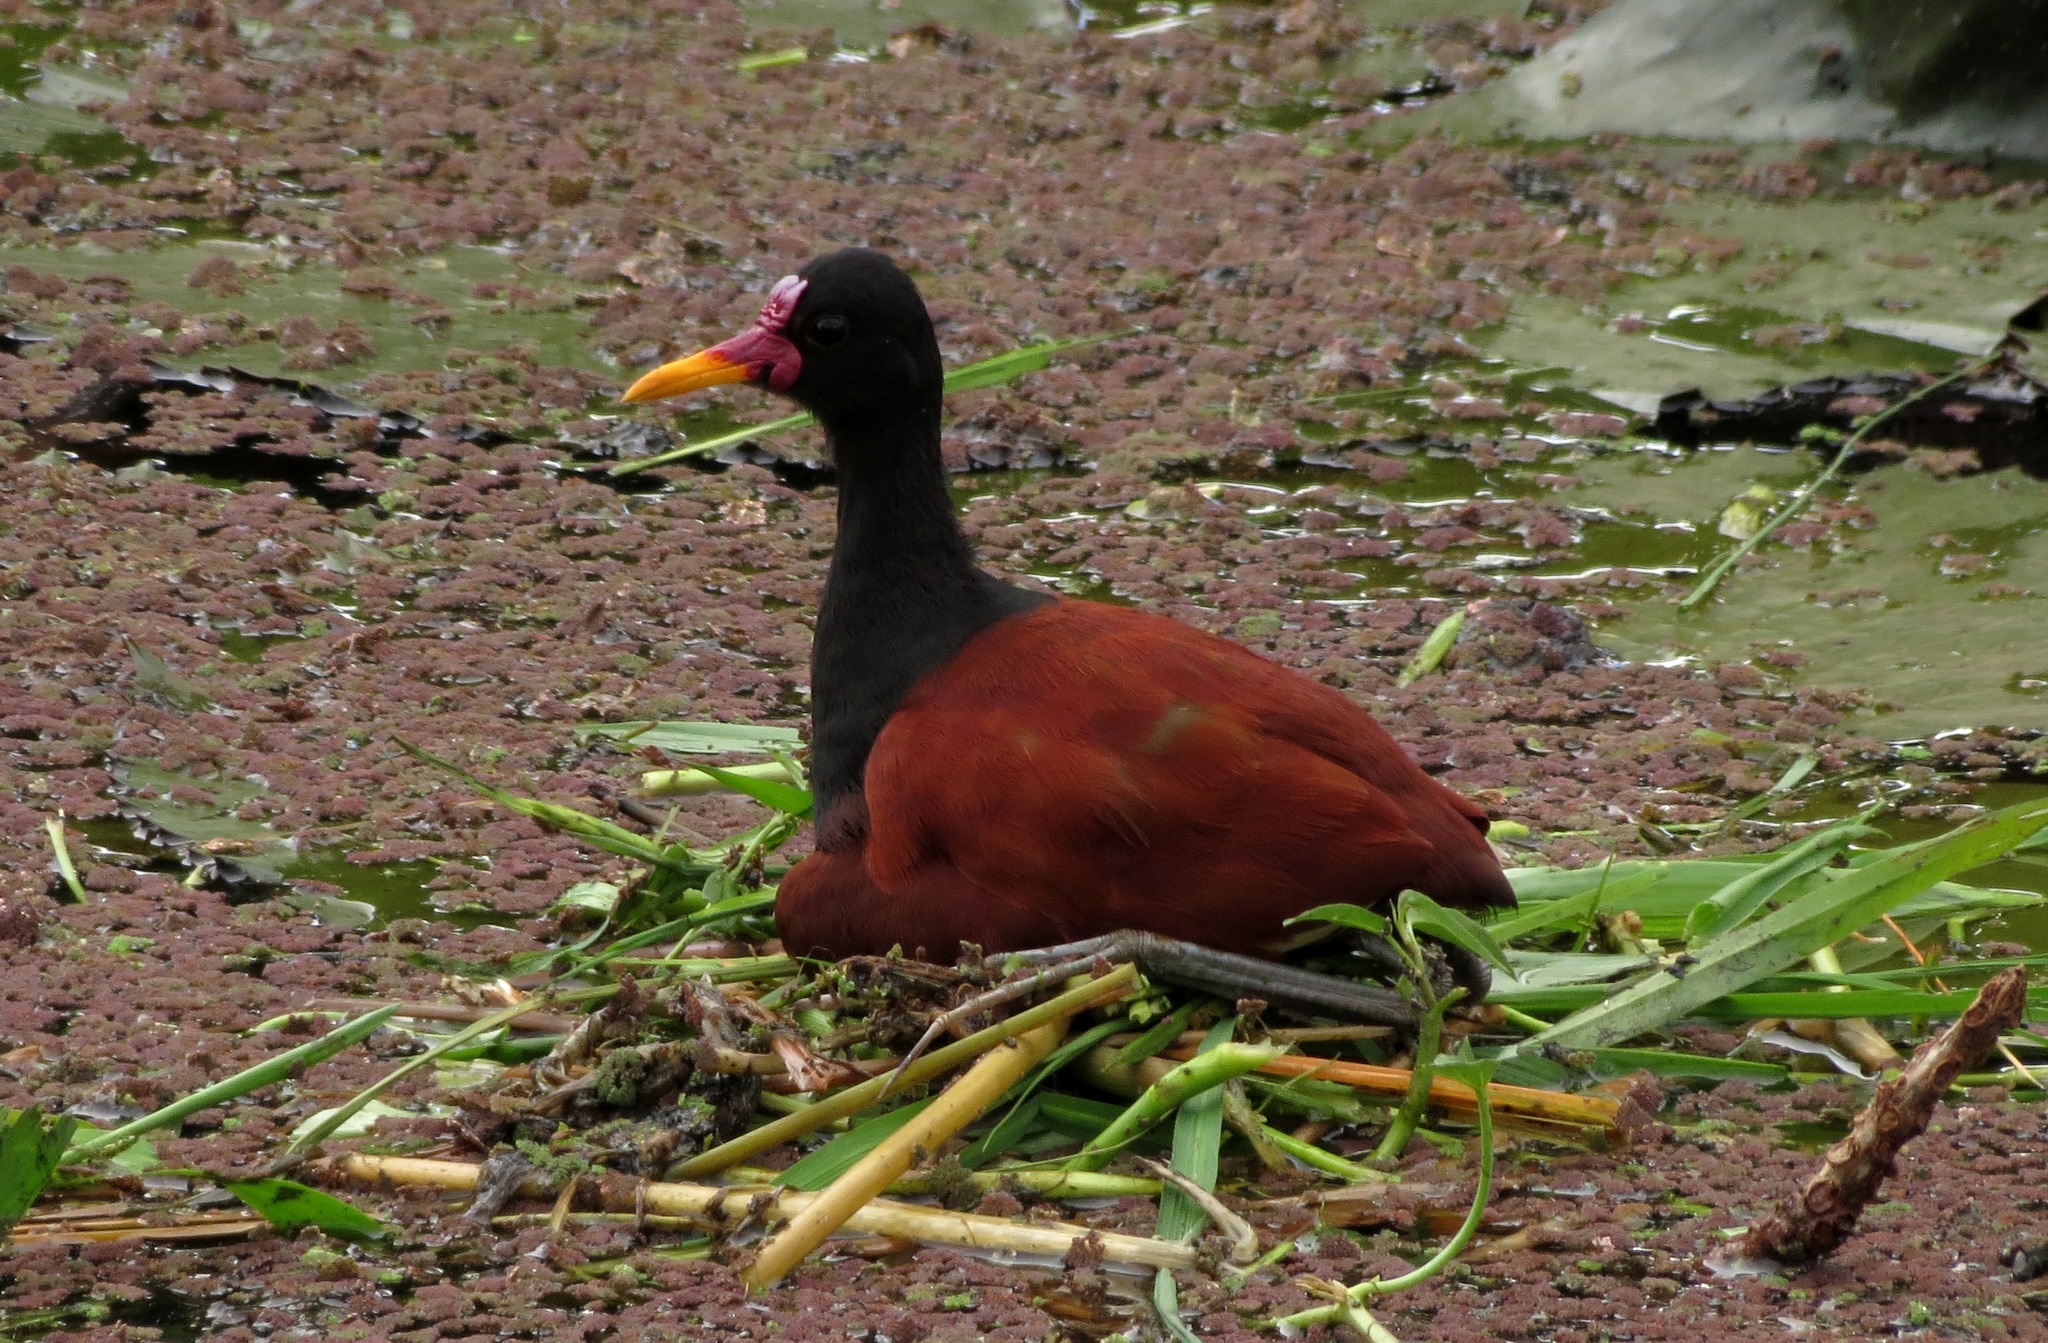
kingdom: Animalia
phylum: Chordata
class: Aves
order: Charadriiformes
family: Jacanidae
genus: Jacana
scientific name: Jacana jacana
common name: Wattled jacana
